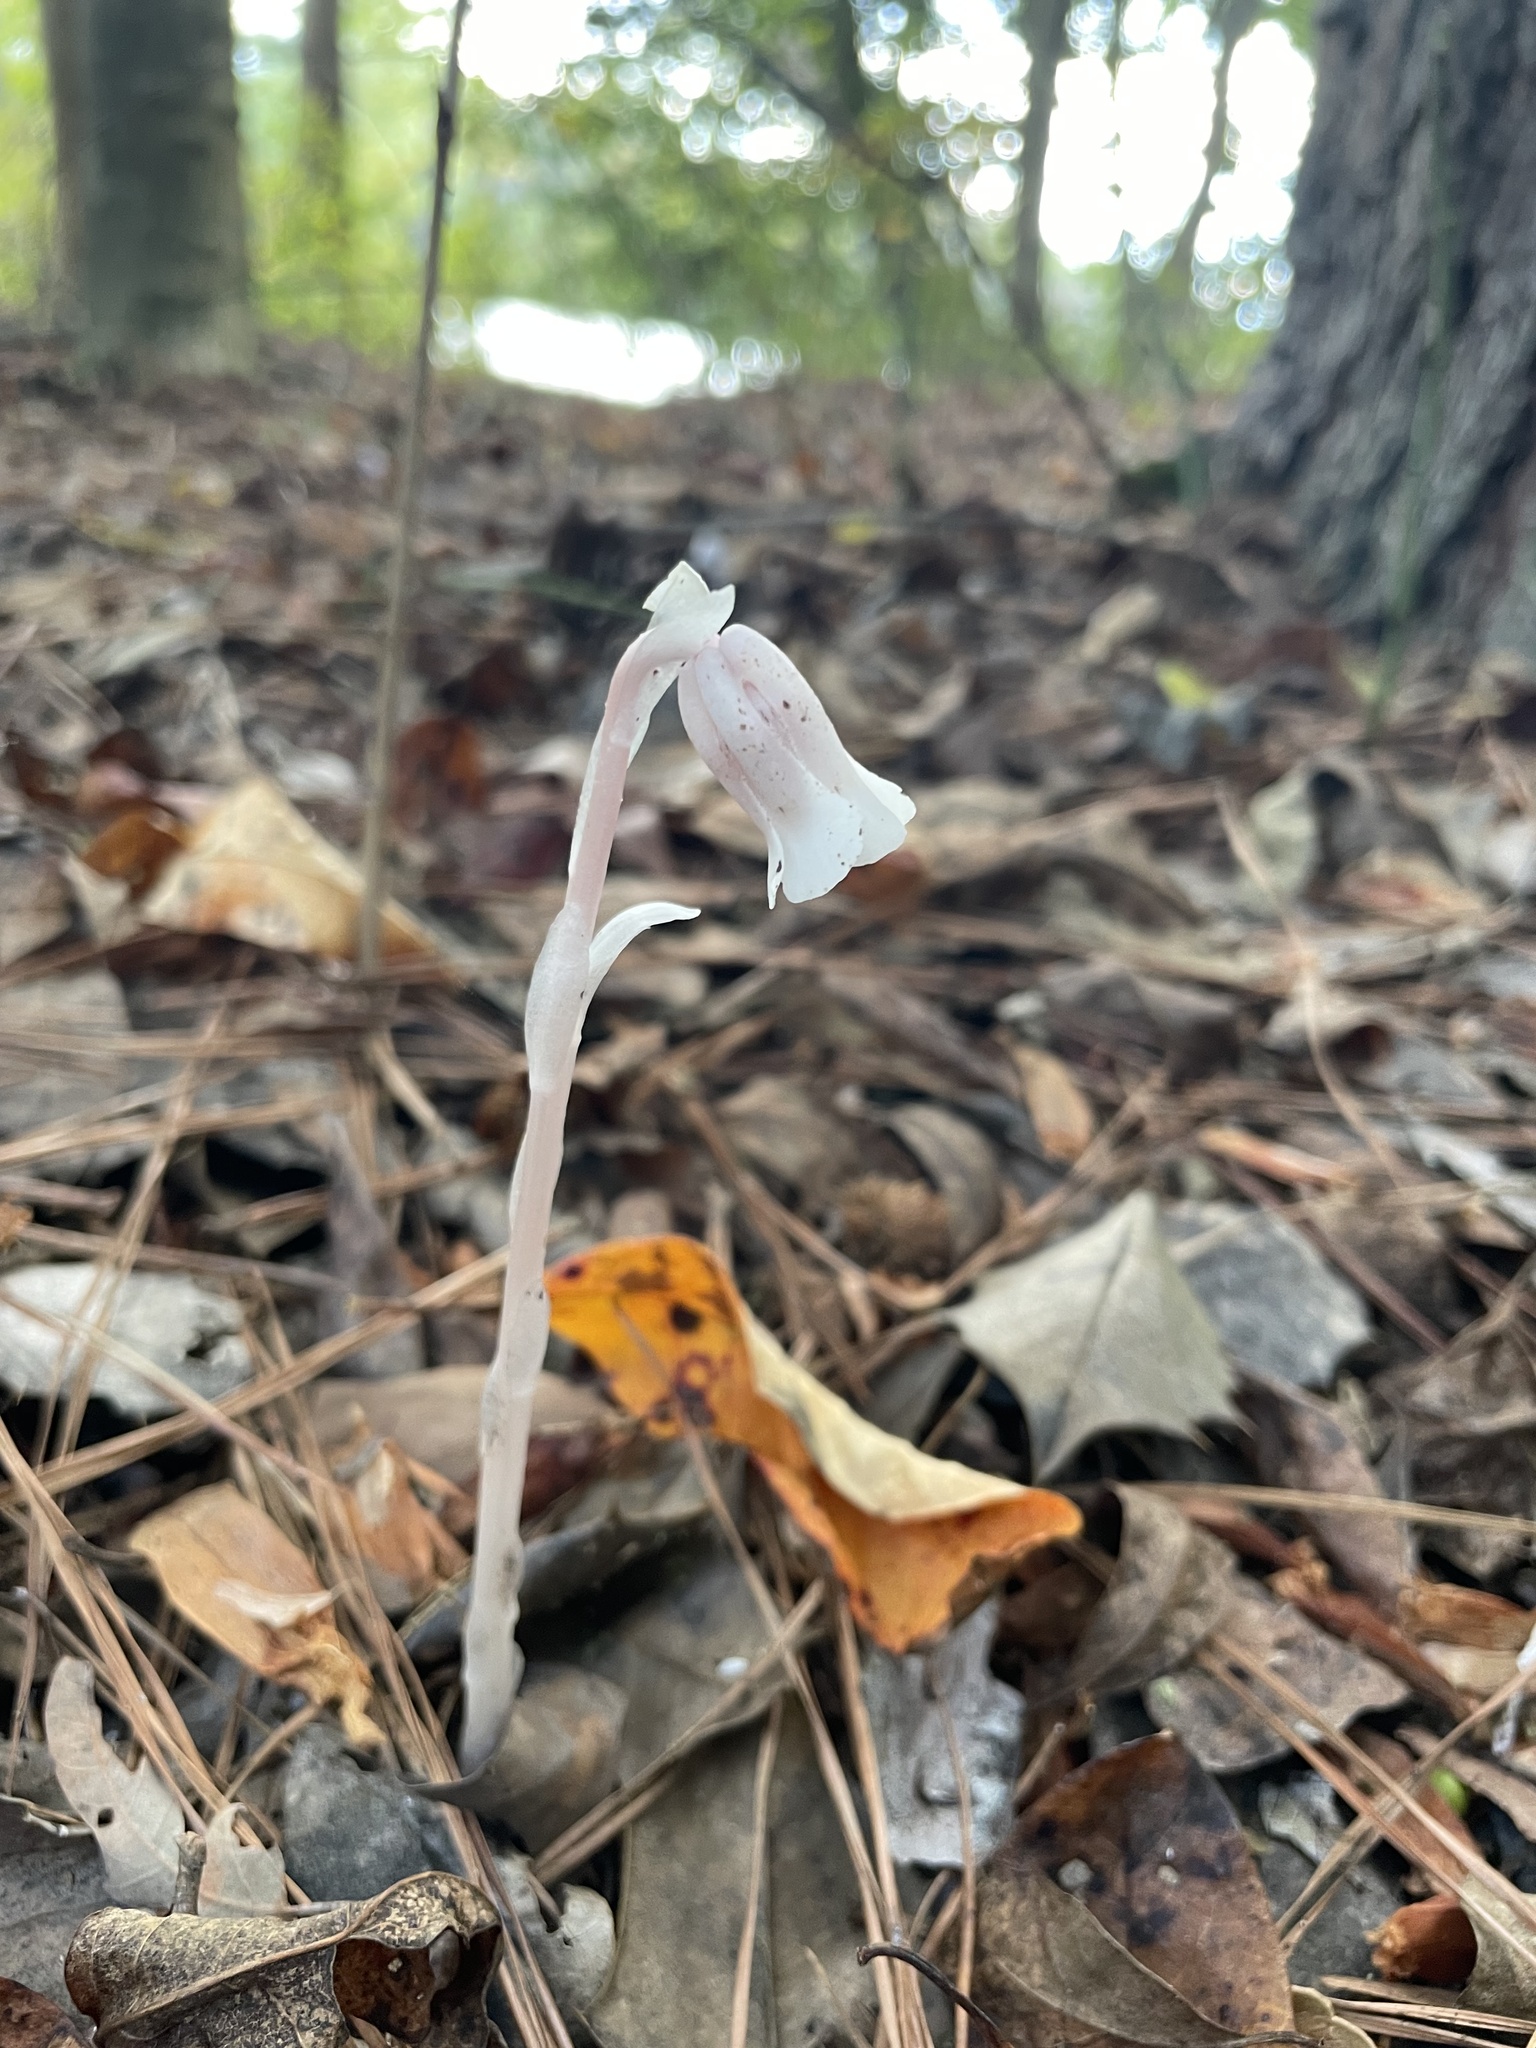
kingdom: Plantae
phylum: Tracheophyta
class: Magnoliopsida
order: Ericales
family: Ericaceae
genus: Monotropa
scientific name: Monotropa uniflora
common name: Convulsion root
